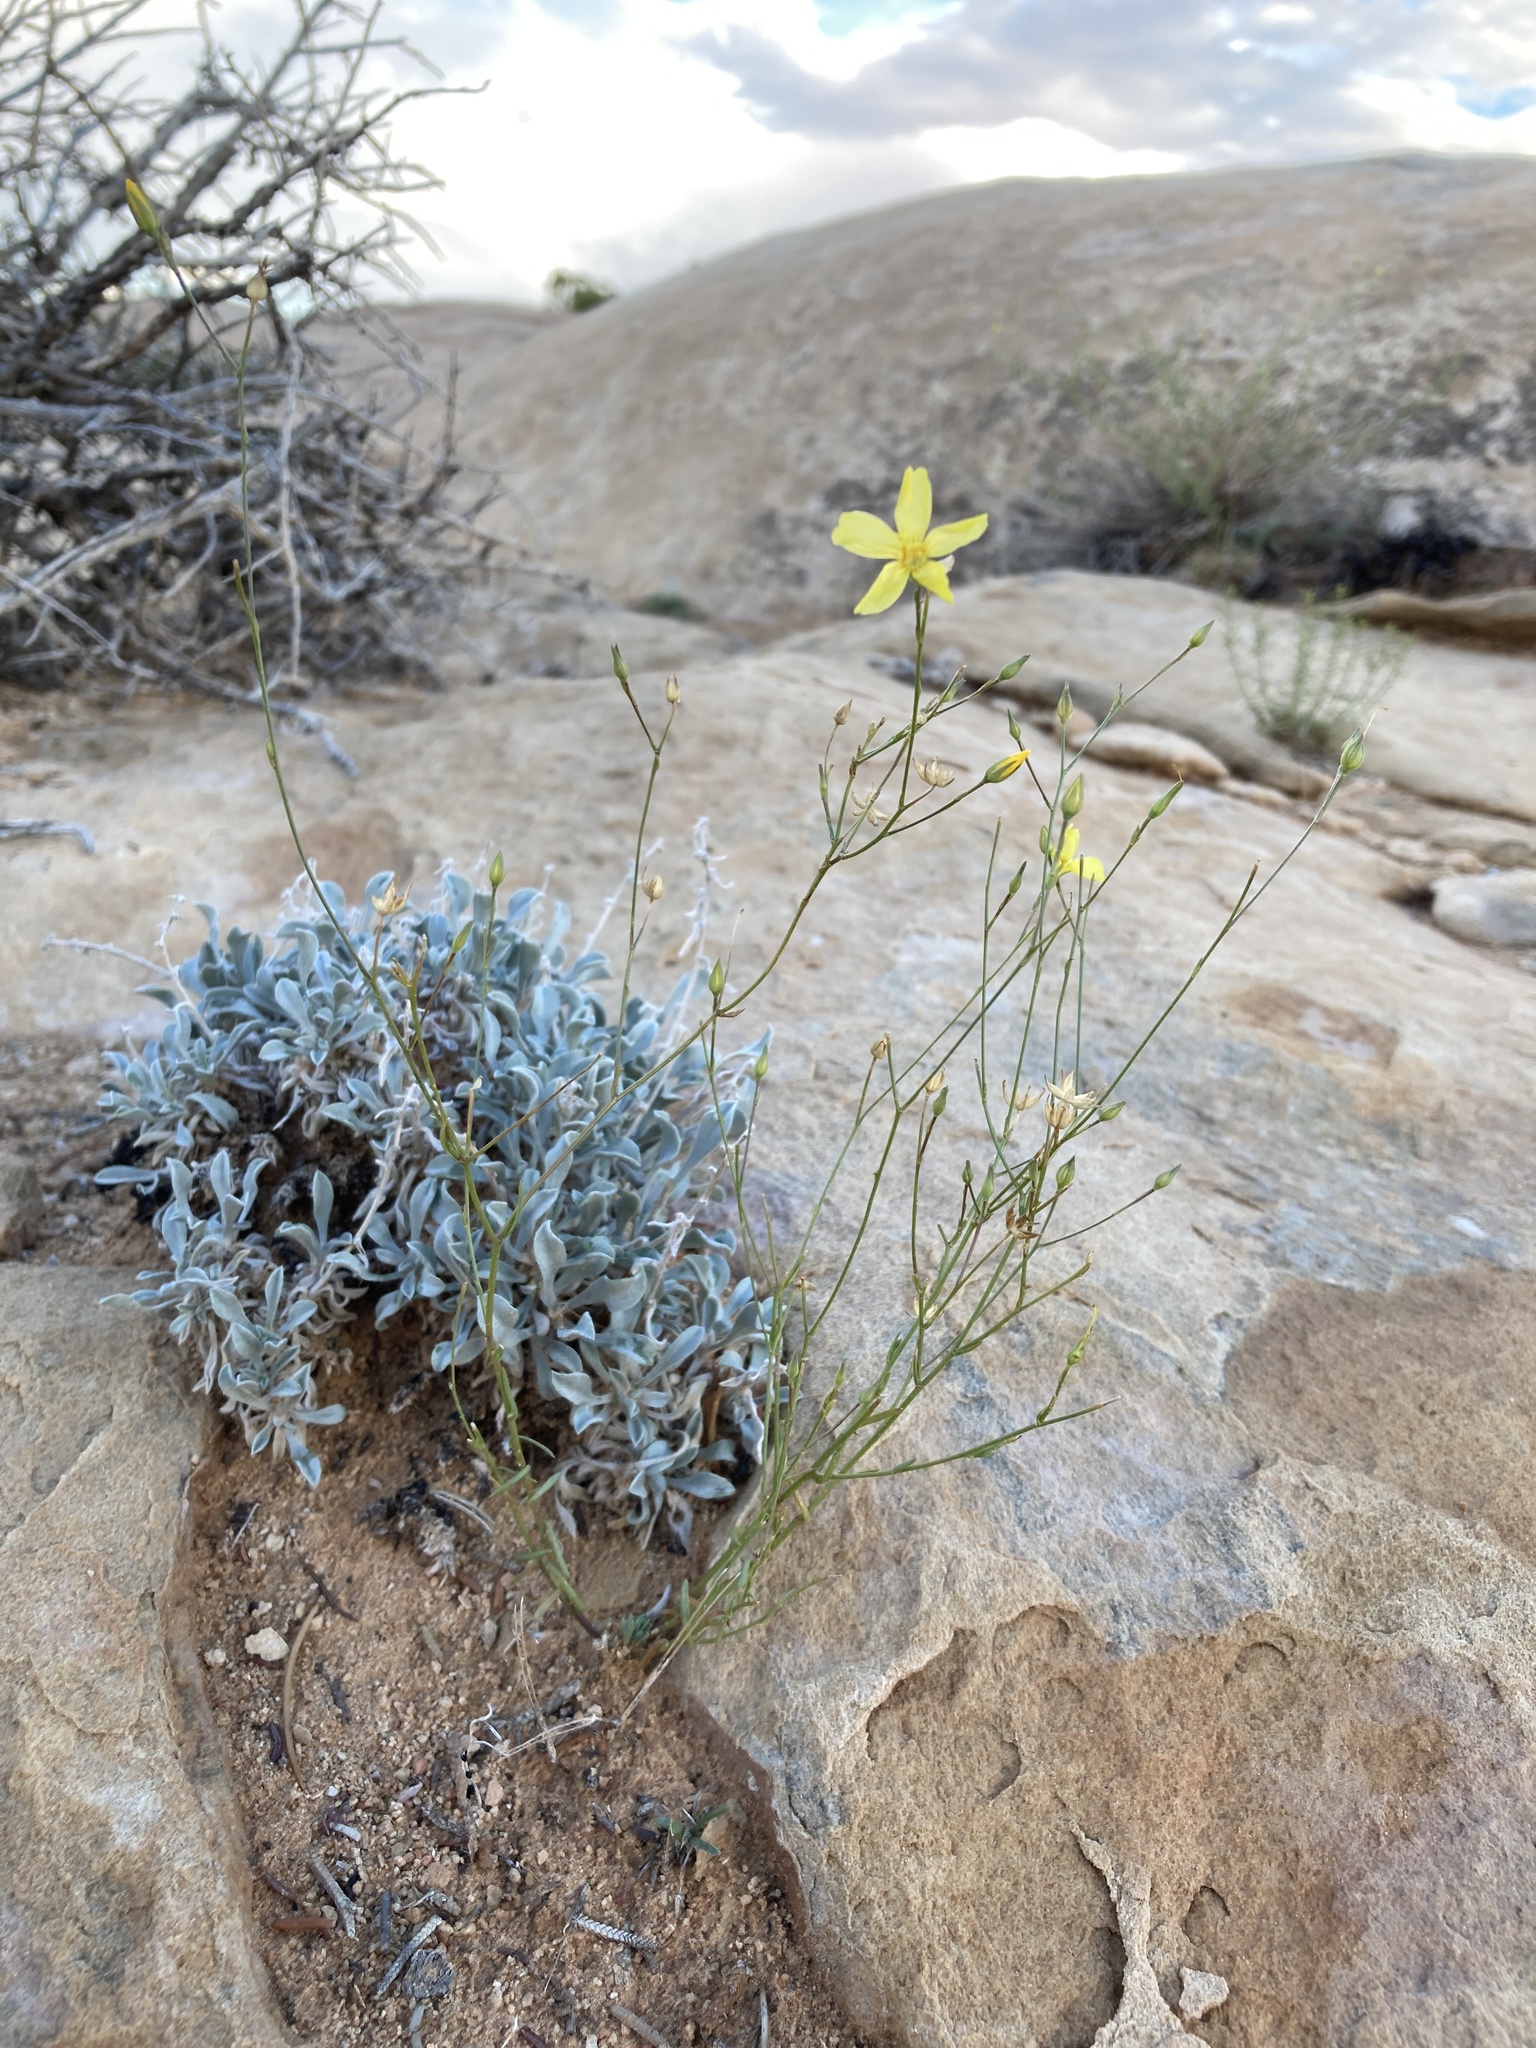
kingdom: Plantae
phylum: Tracheophyta
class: Magnoliopsida
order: Malpighiales
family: Linaceae
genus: Linum
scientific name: Linum subteres
